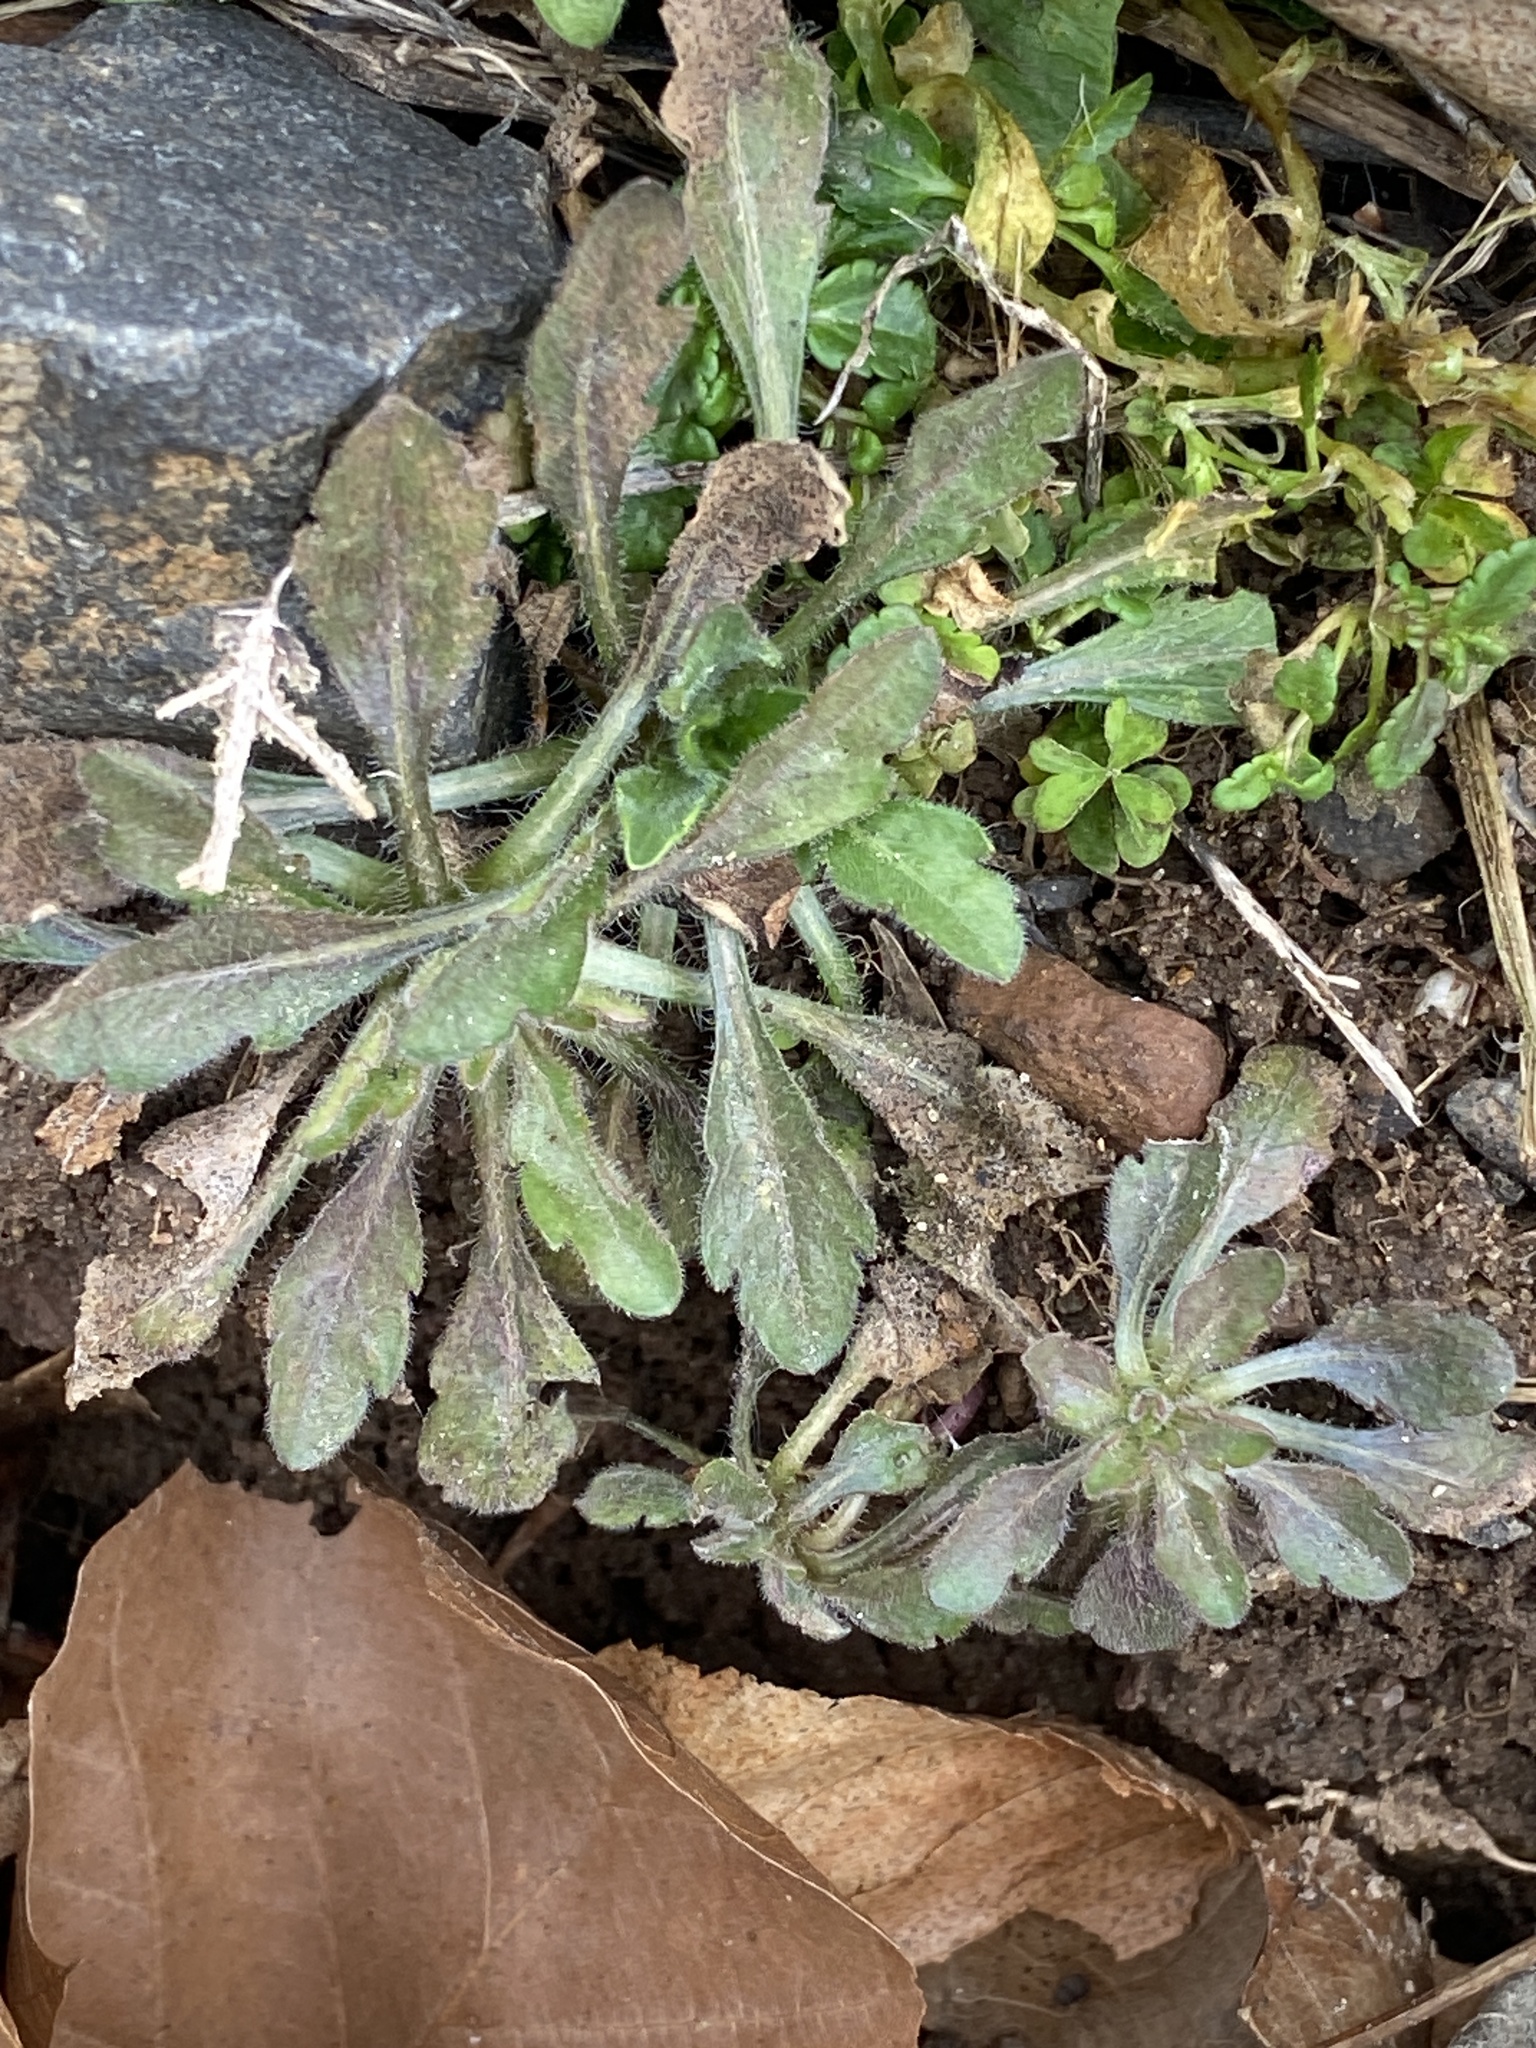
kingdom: Plantae
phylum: Tracheophyta
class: Magnoliopsida
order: Asterales
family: Asteraceae
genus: Erigeron
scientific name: Erigeron canadensis
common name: Canadian fleabane
